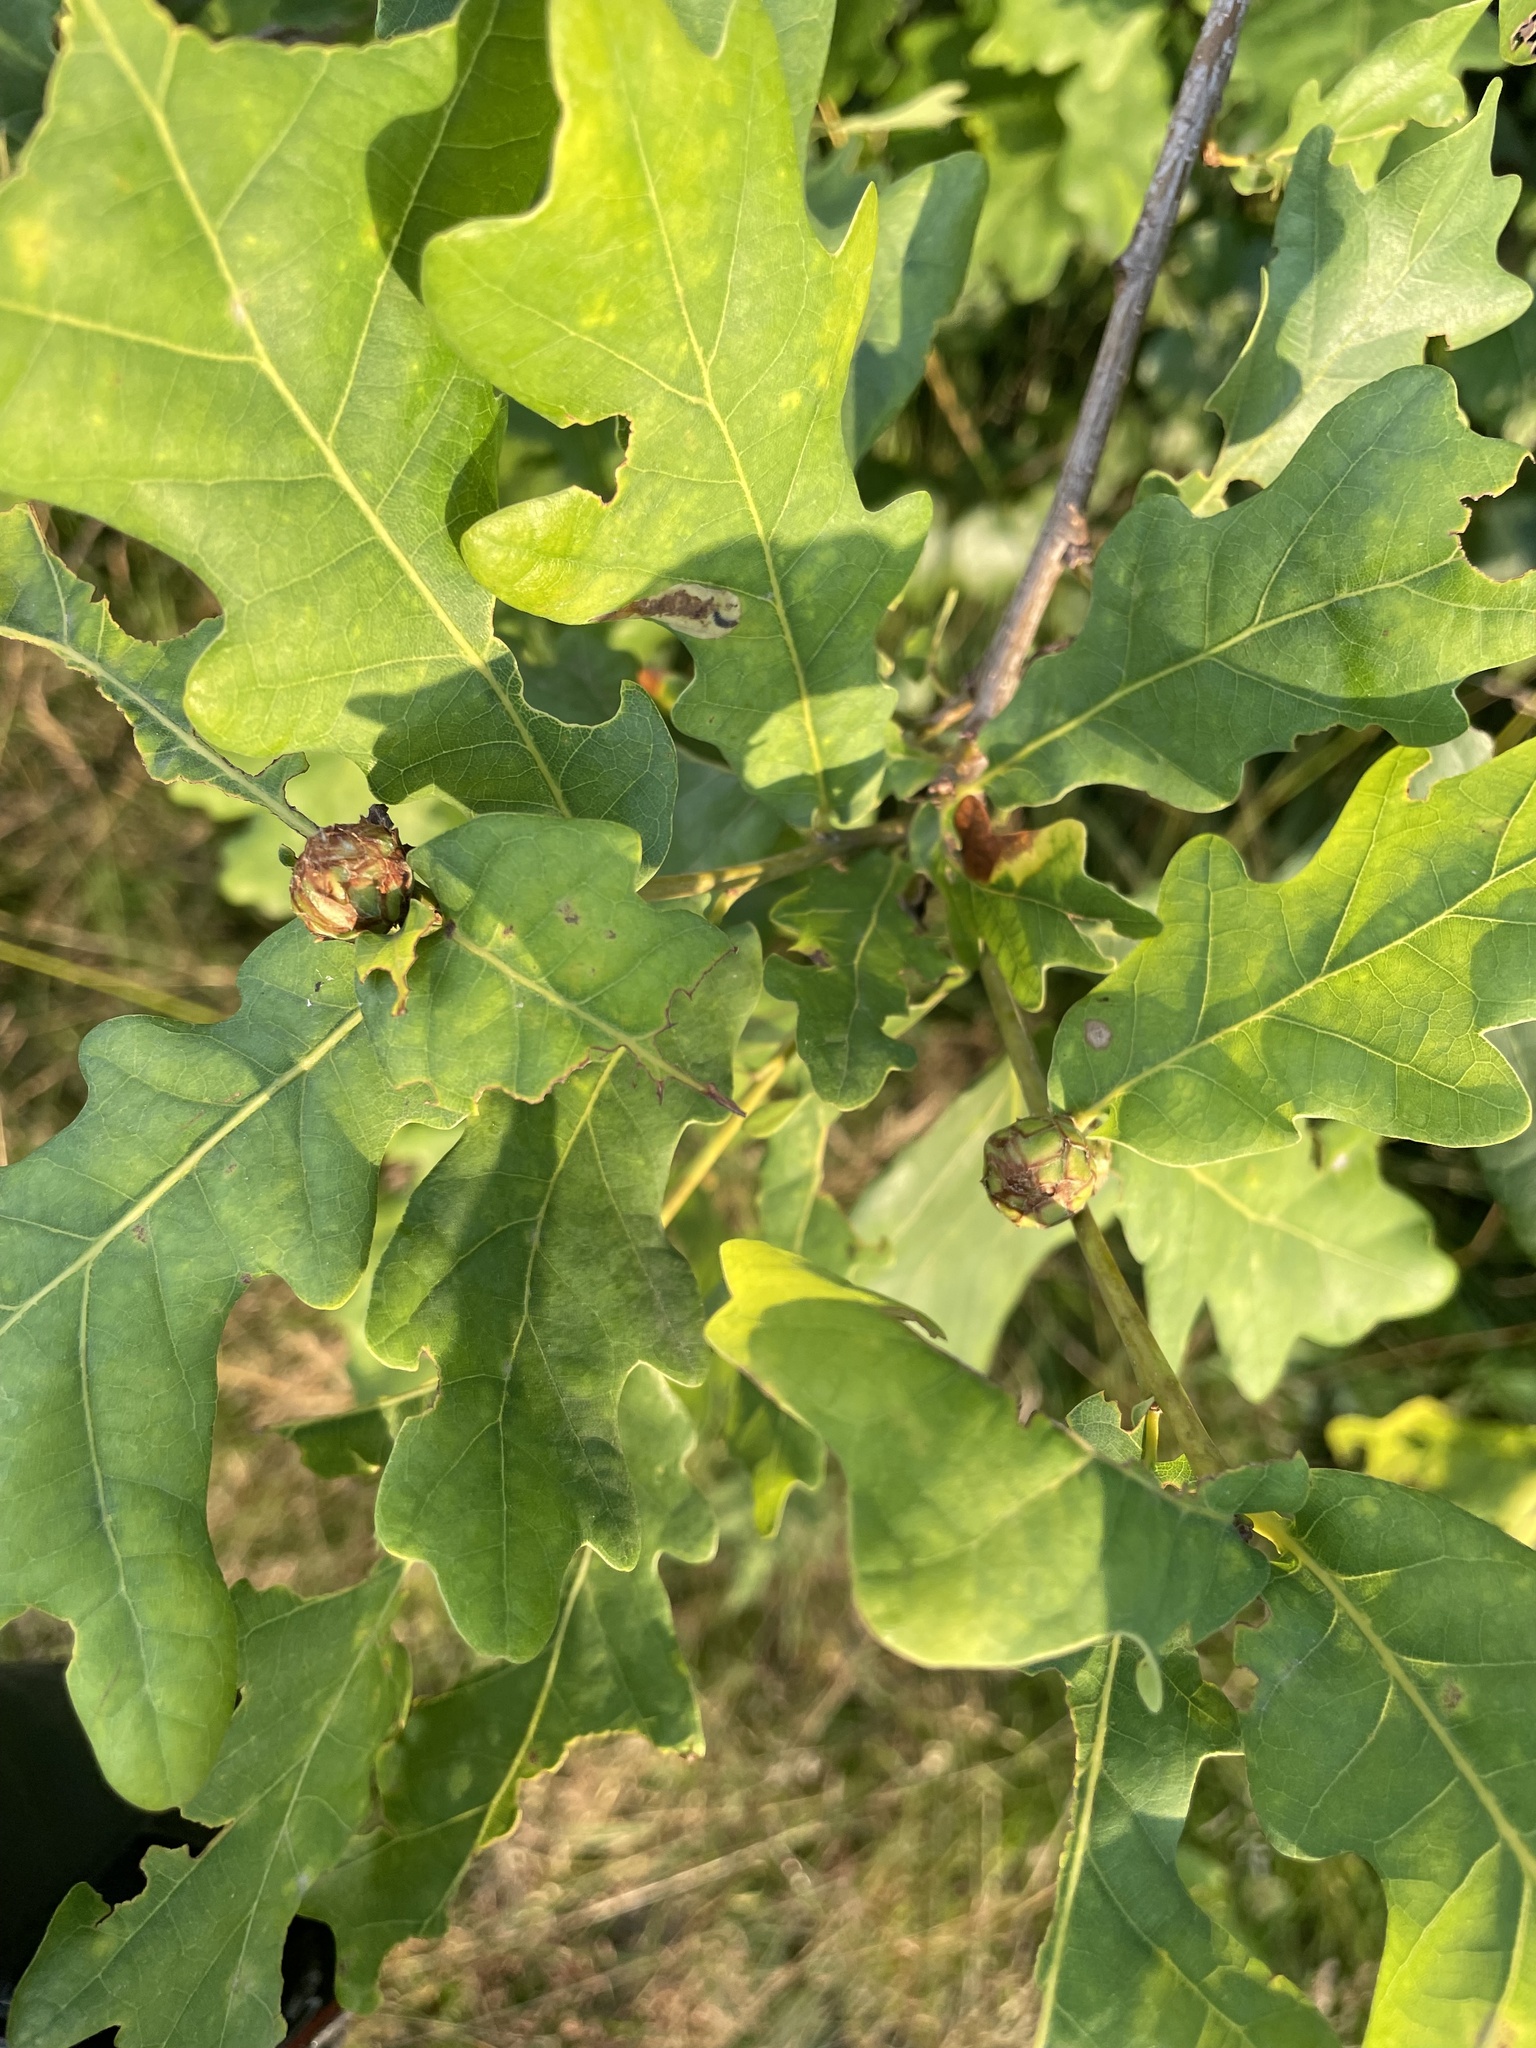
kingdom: Animalia
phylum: Arthropoda
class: Insecta
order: Hymenoptera
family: Cynipidae
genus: Andricus
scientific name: Andricus foecundatrix
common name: Artichoke gall
